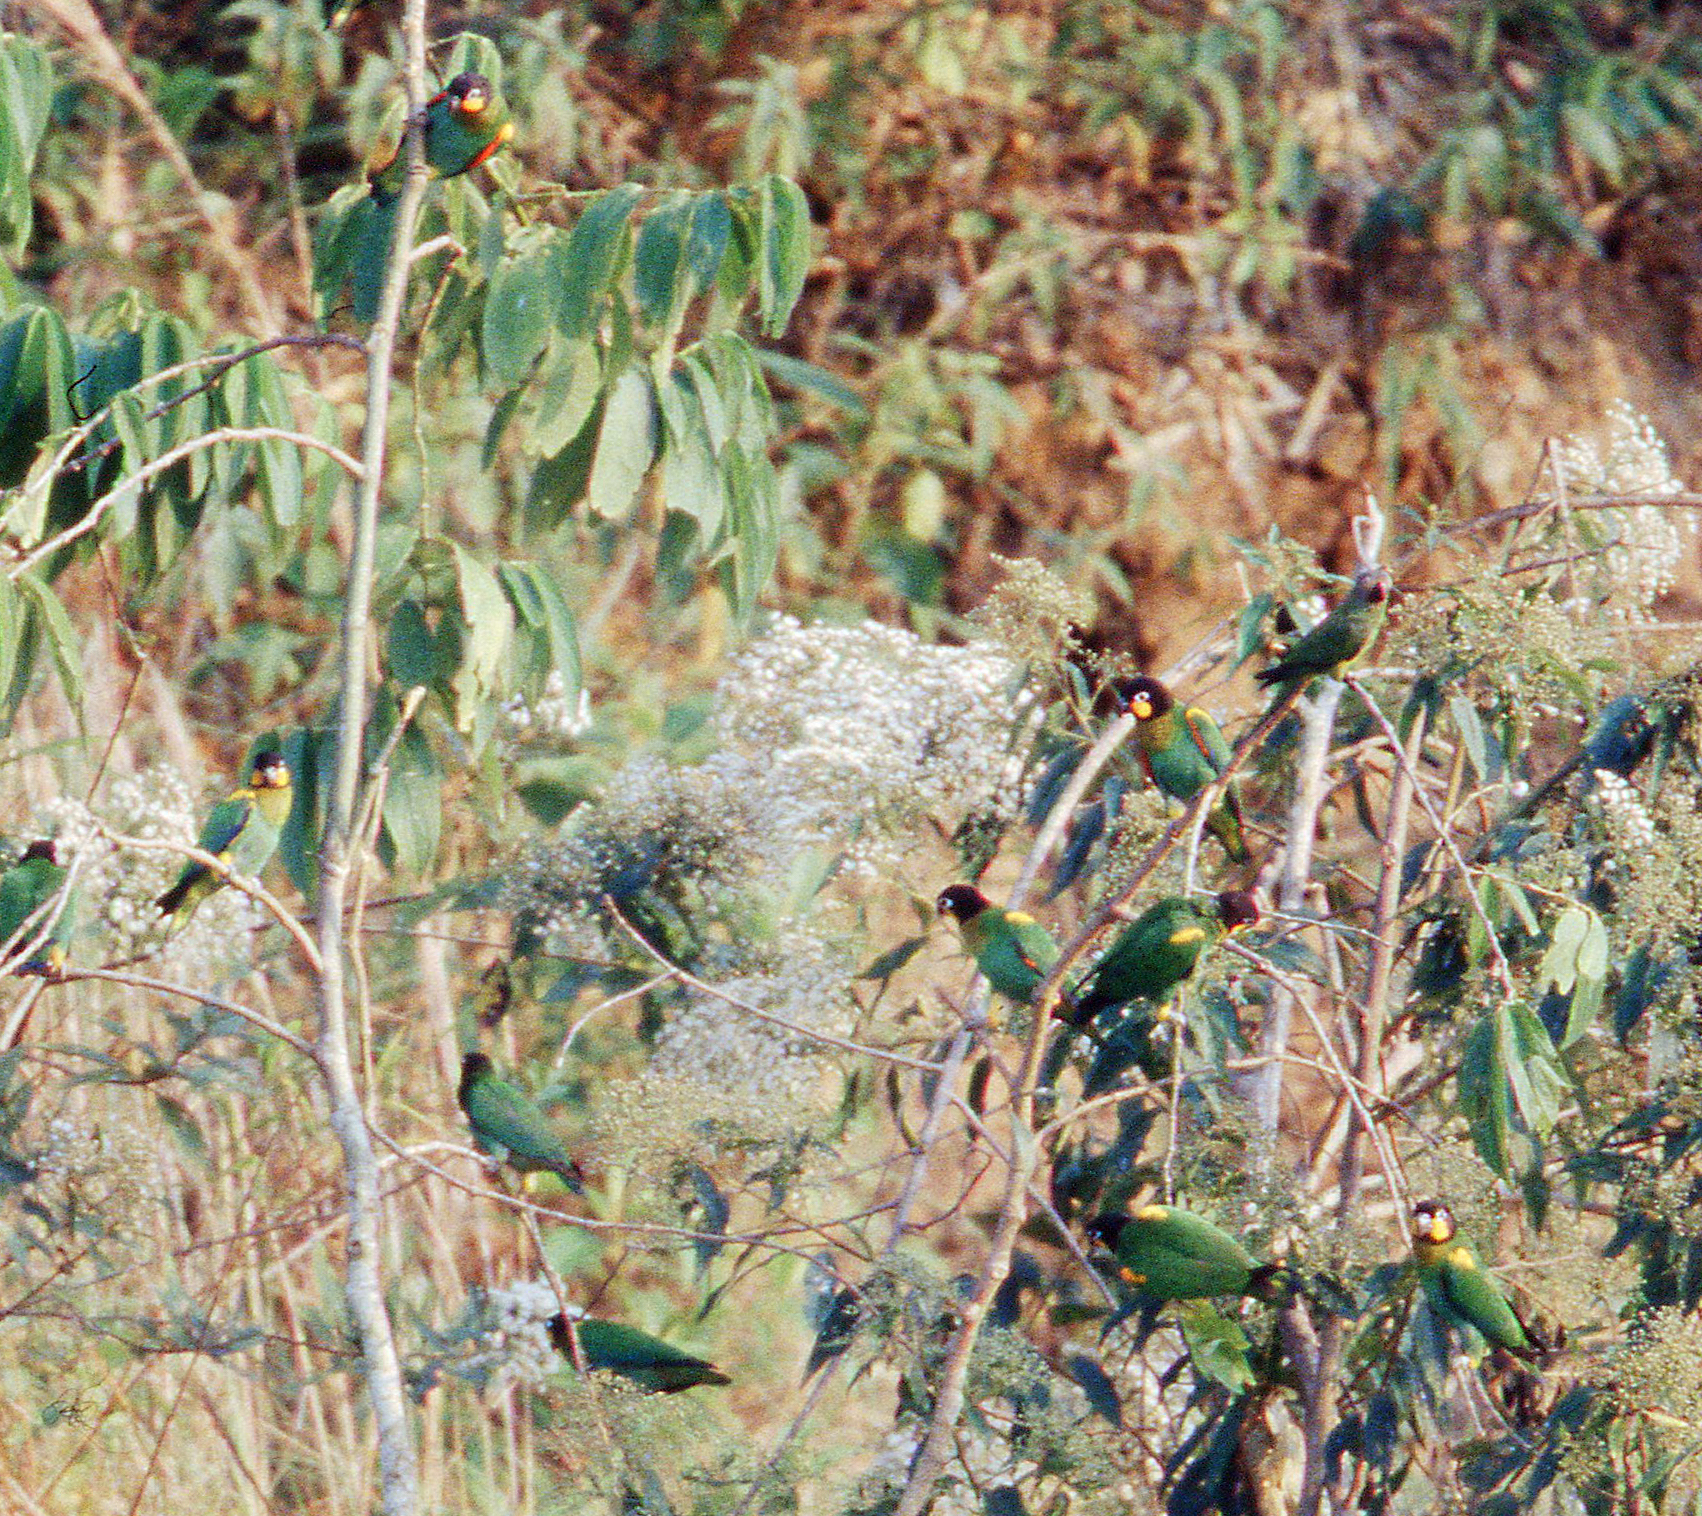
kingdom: Animalia
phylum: Chordata
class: Aves
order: Psittaciformes
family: Psittacidae
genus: Pionopsitta
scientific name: Pionopsitta barrabandi
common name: Orange-cheeked parrot
